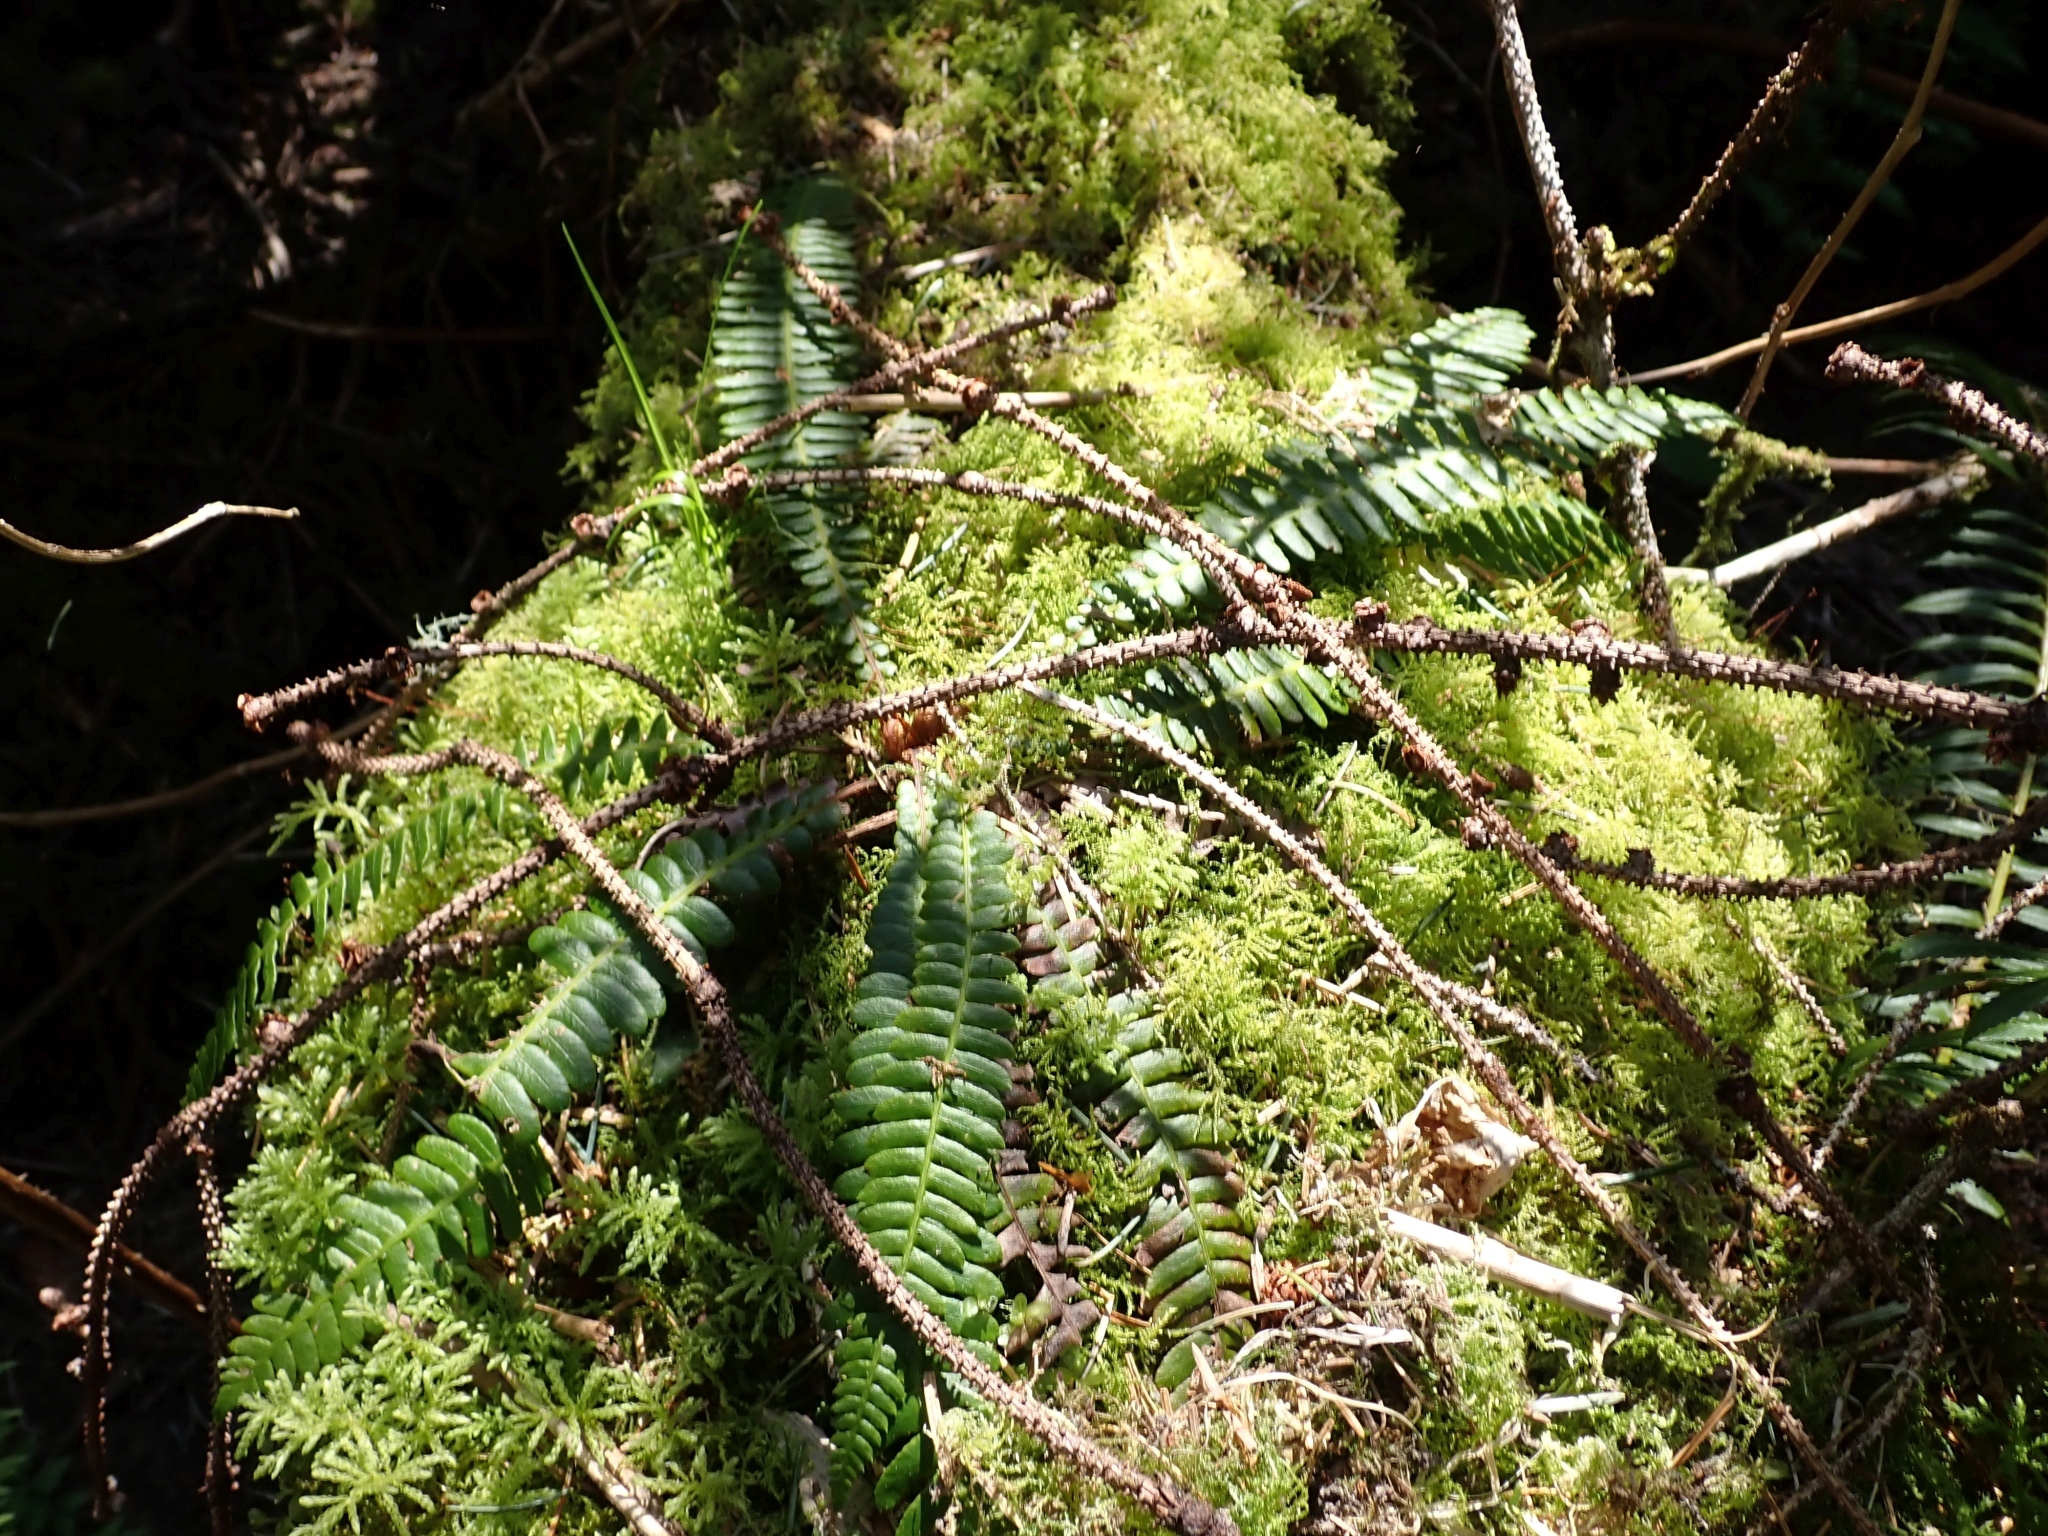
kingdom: Plantae
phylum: Tracheophyta
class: Polypodiopsida
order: Polypodiales
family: Blechnaceae
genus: Struthiopteris
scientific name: Struthiopteris spicant
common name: Deer fern
